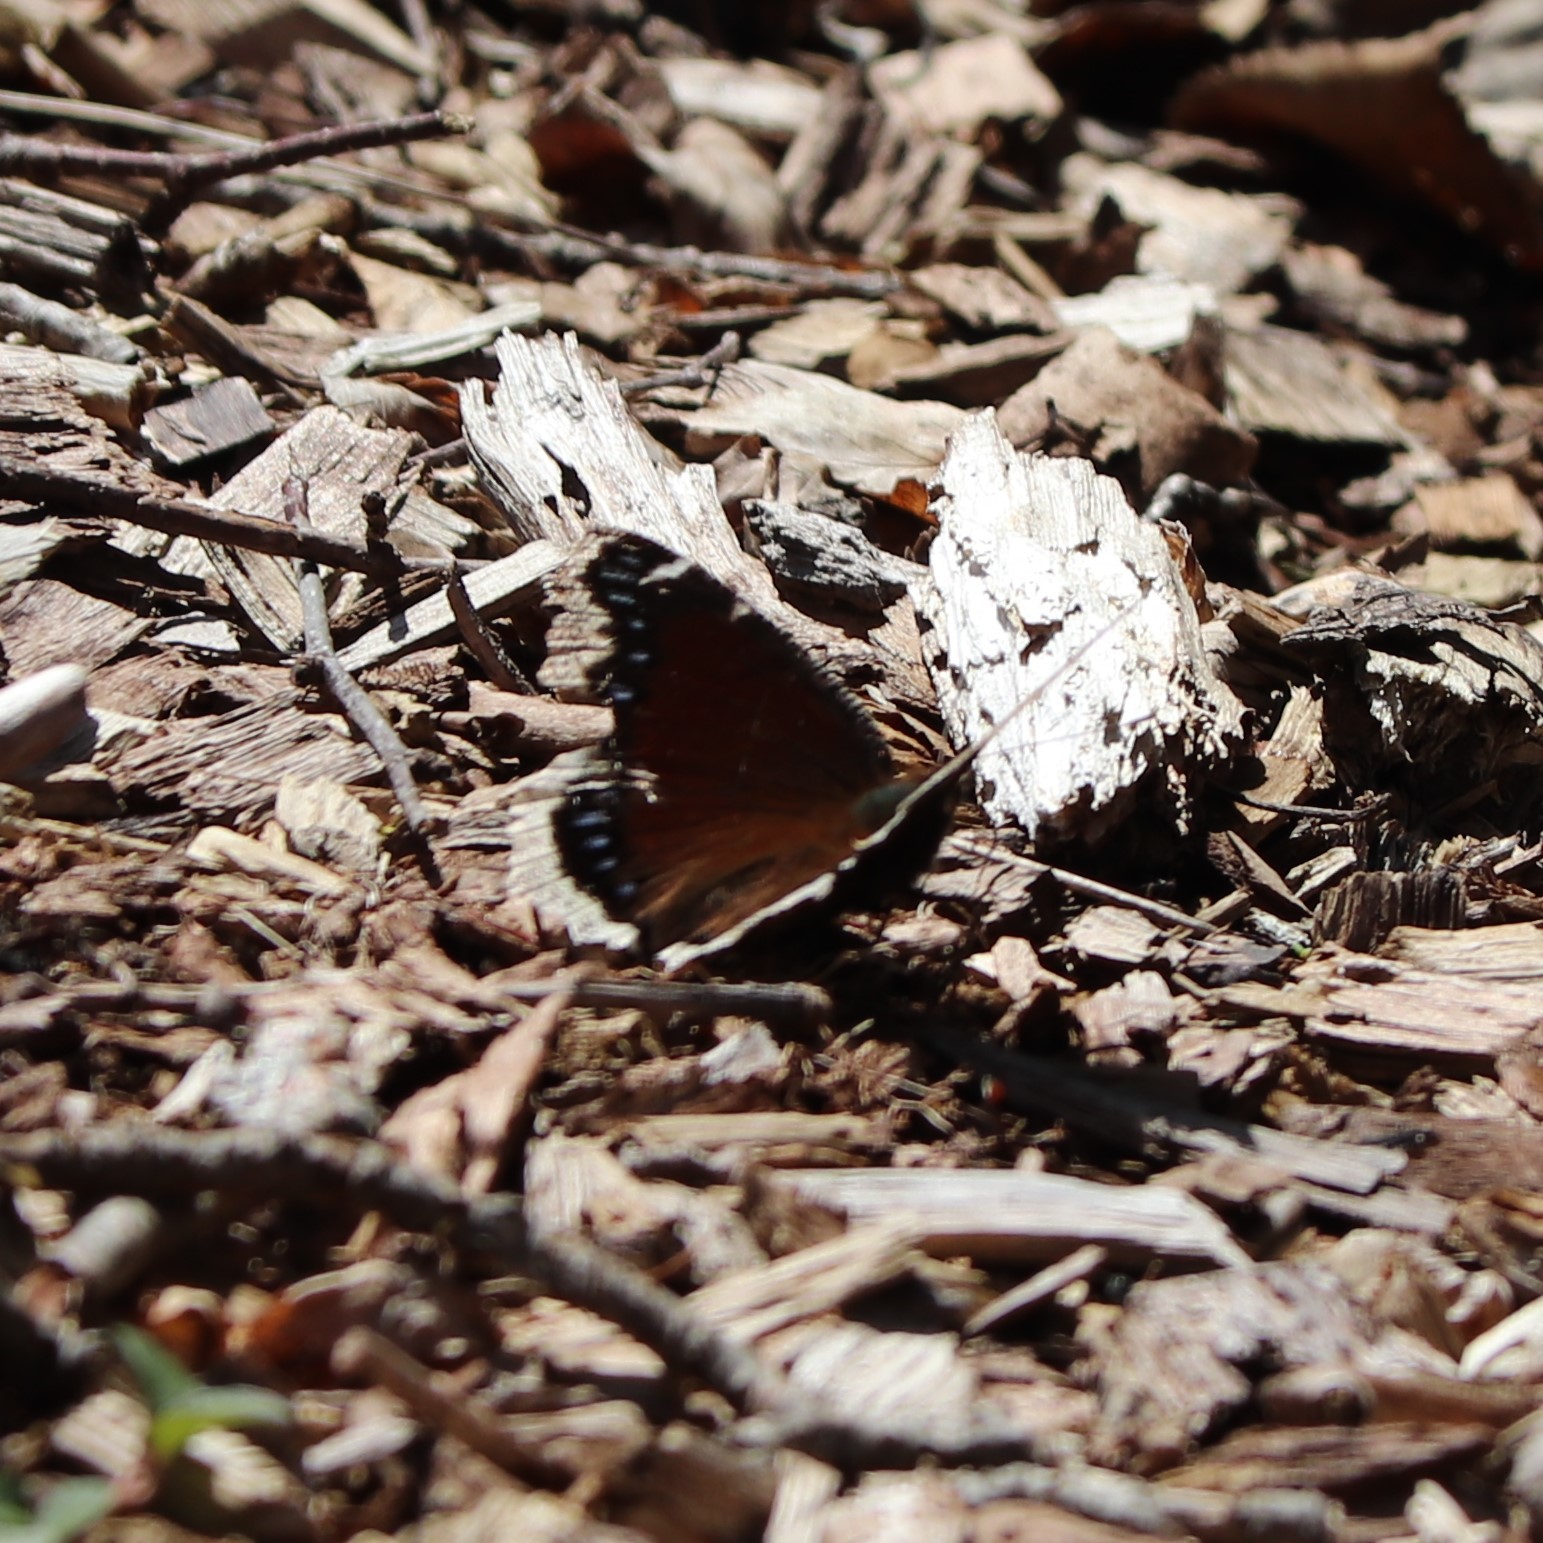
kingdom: Animalia
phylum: Arthropoda
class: Insecta
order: Lepidoptera
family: Nymphalidae
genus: Nymphalis
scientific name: Nymphalis antiopa
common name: Camberwell beauty
